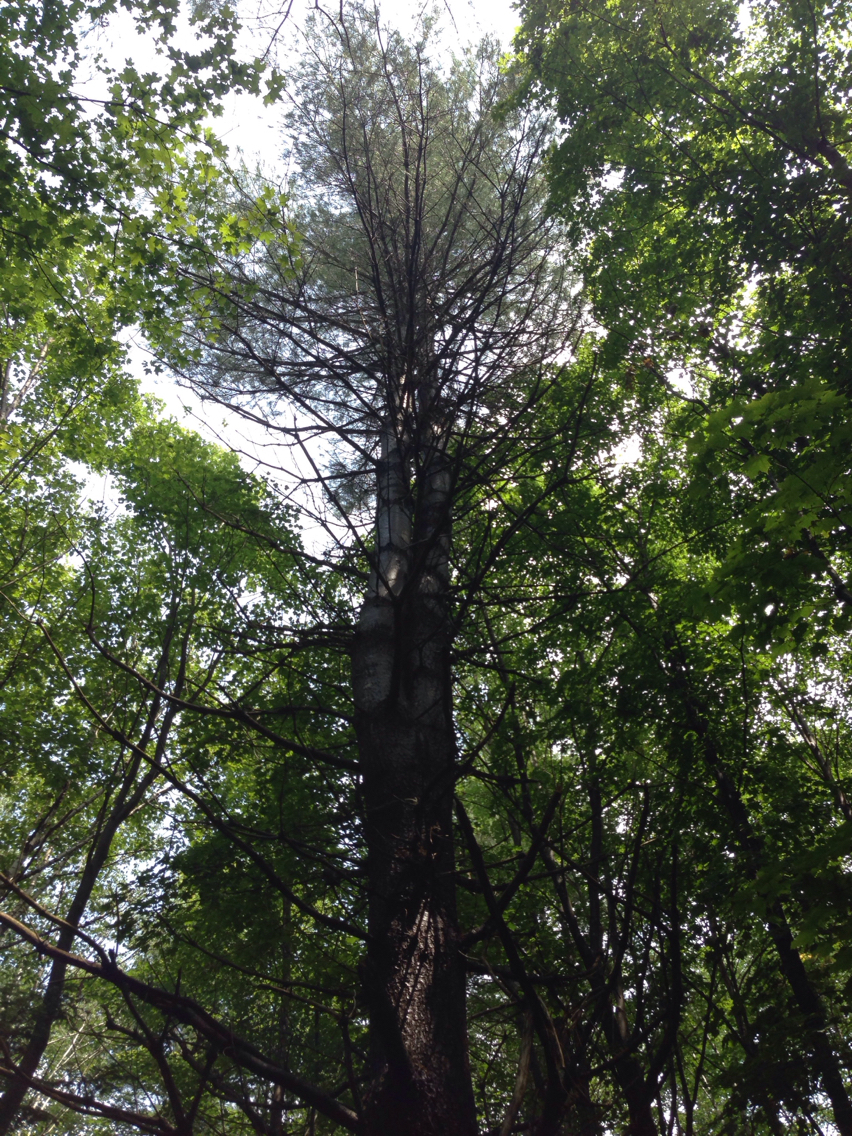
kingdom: Plantae
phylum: Tracheophyta
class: Pinopsida
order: Pinales
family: Pinaceae
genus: Pinus
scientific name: Pinus strobus
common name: Weymouth pine
